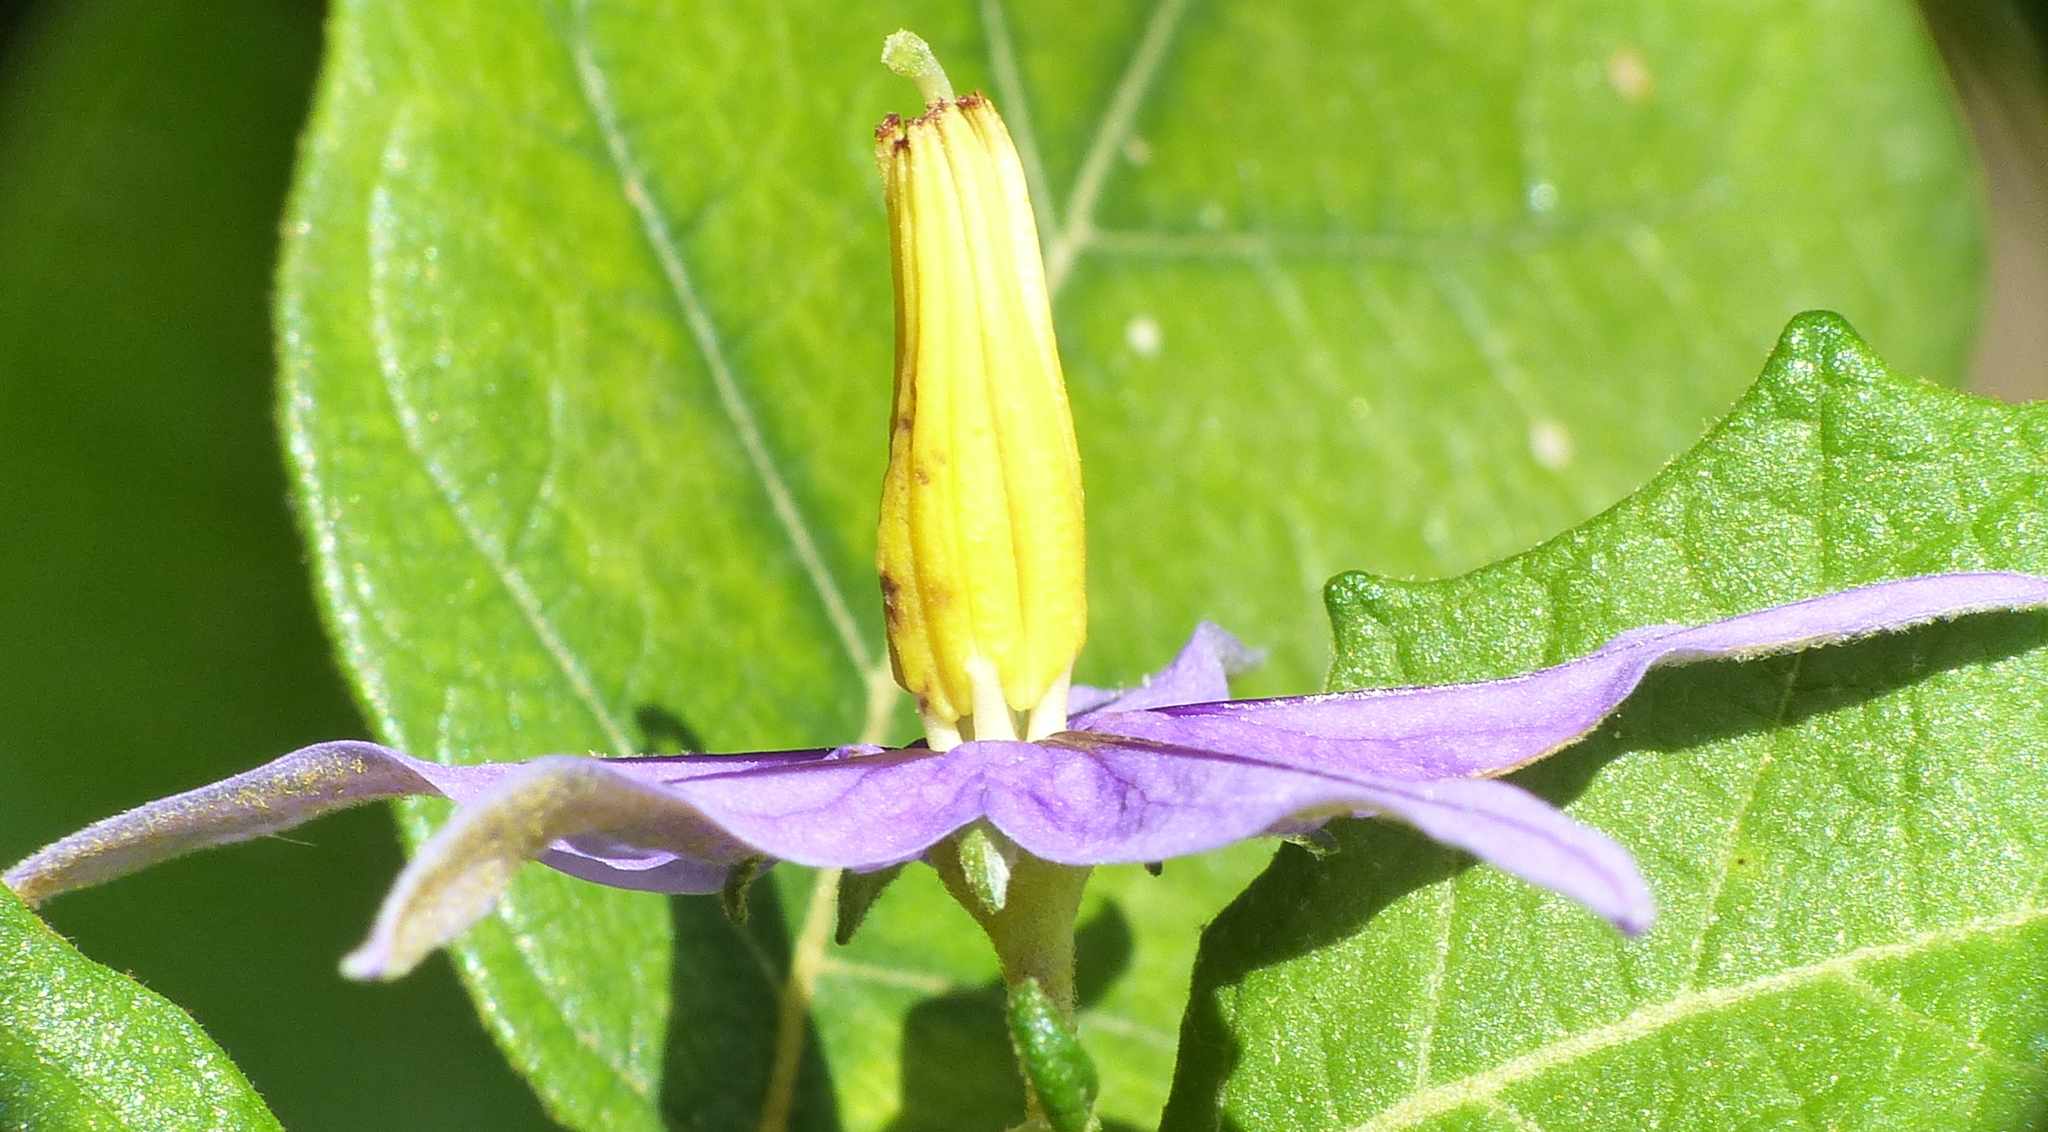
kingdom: Plantae
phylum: Tracheophyta
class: Magnoliopsida
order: Solanales
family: Solanaceae
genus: Solanum
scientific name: Solanum paludosum
